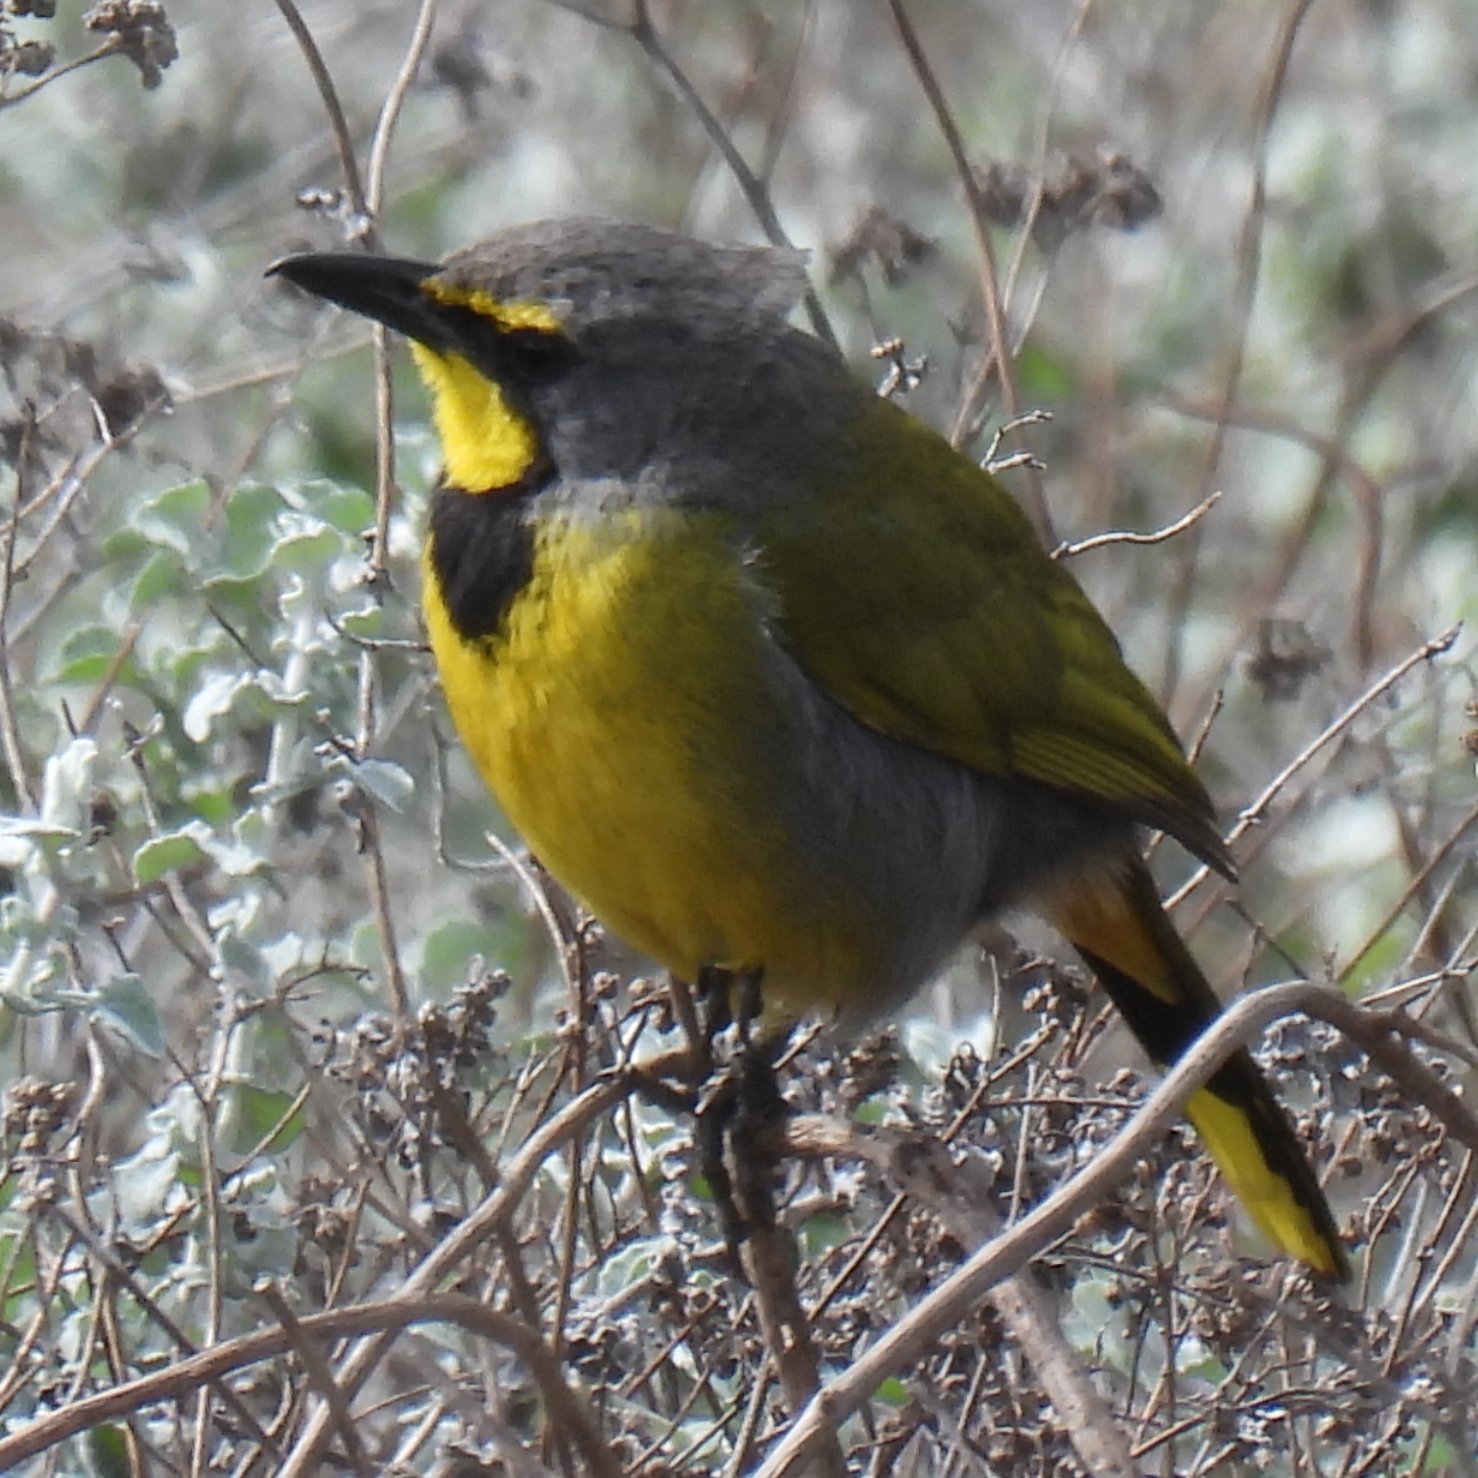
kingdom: Animalia
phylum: Chordata
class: Aves
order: Passeriformes
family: Malaconotidae
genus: Telophorus
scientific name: Telophorus zeylonus
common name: Bokmakierie
